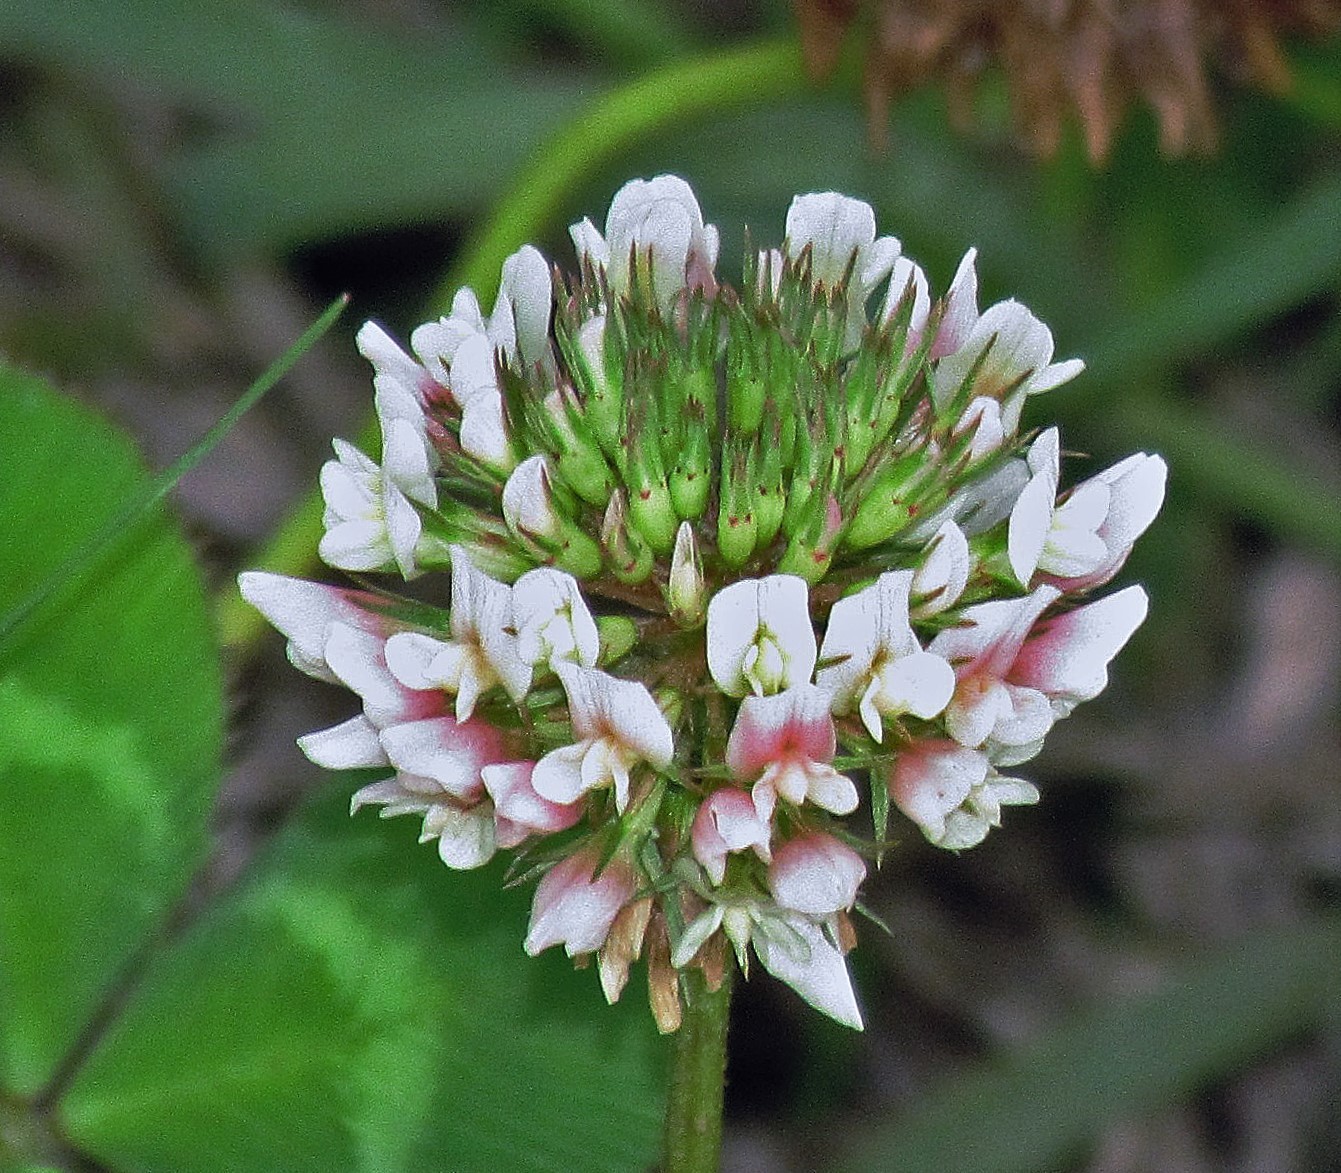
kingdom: Plantae
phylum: Tracheophyta
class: Magnoliopsida
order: Fabales
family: Fabaceae
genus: Trifolium
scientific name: Trifolium repens
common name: White clover
